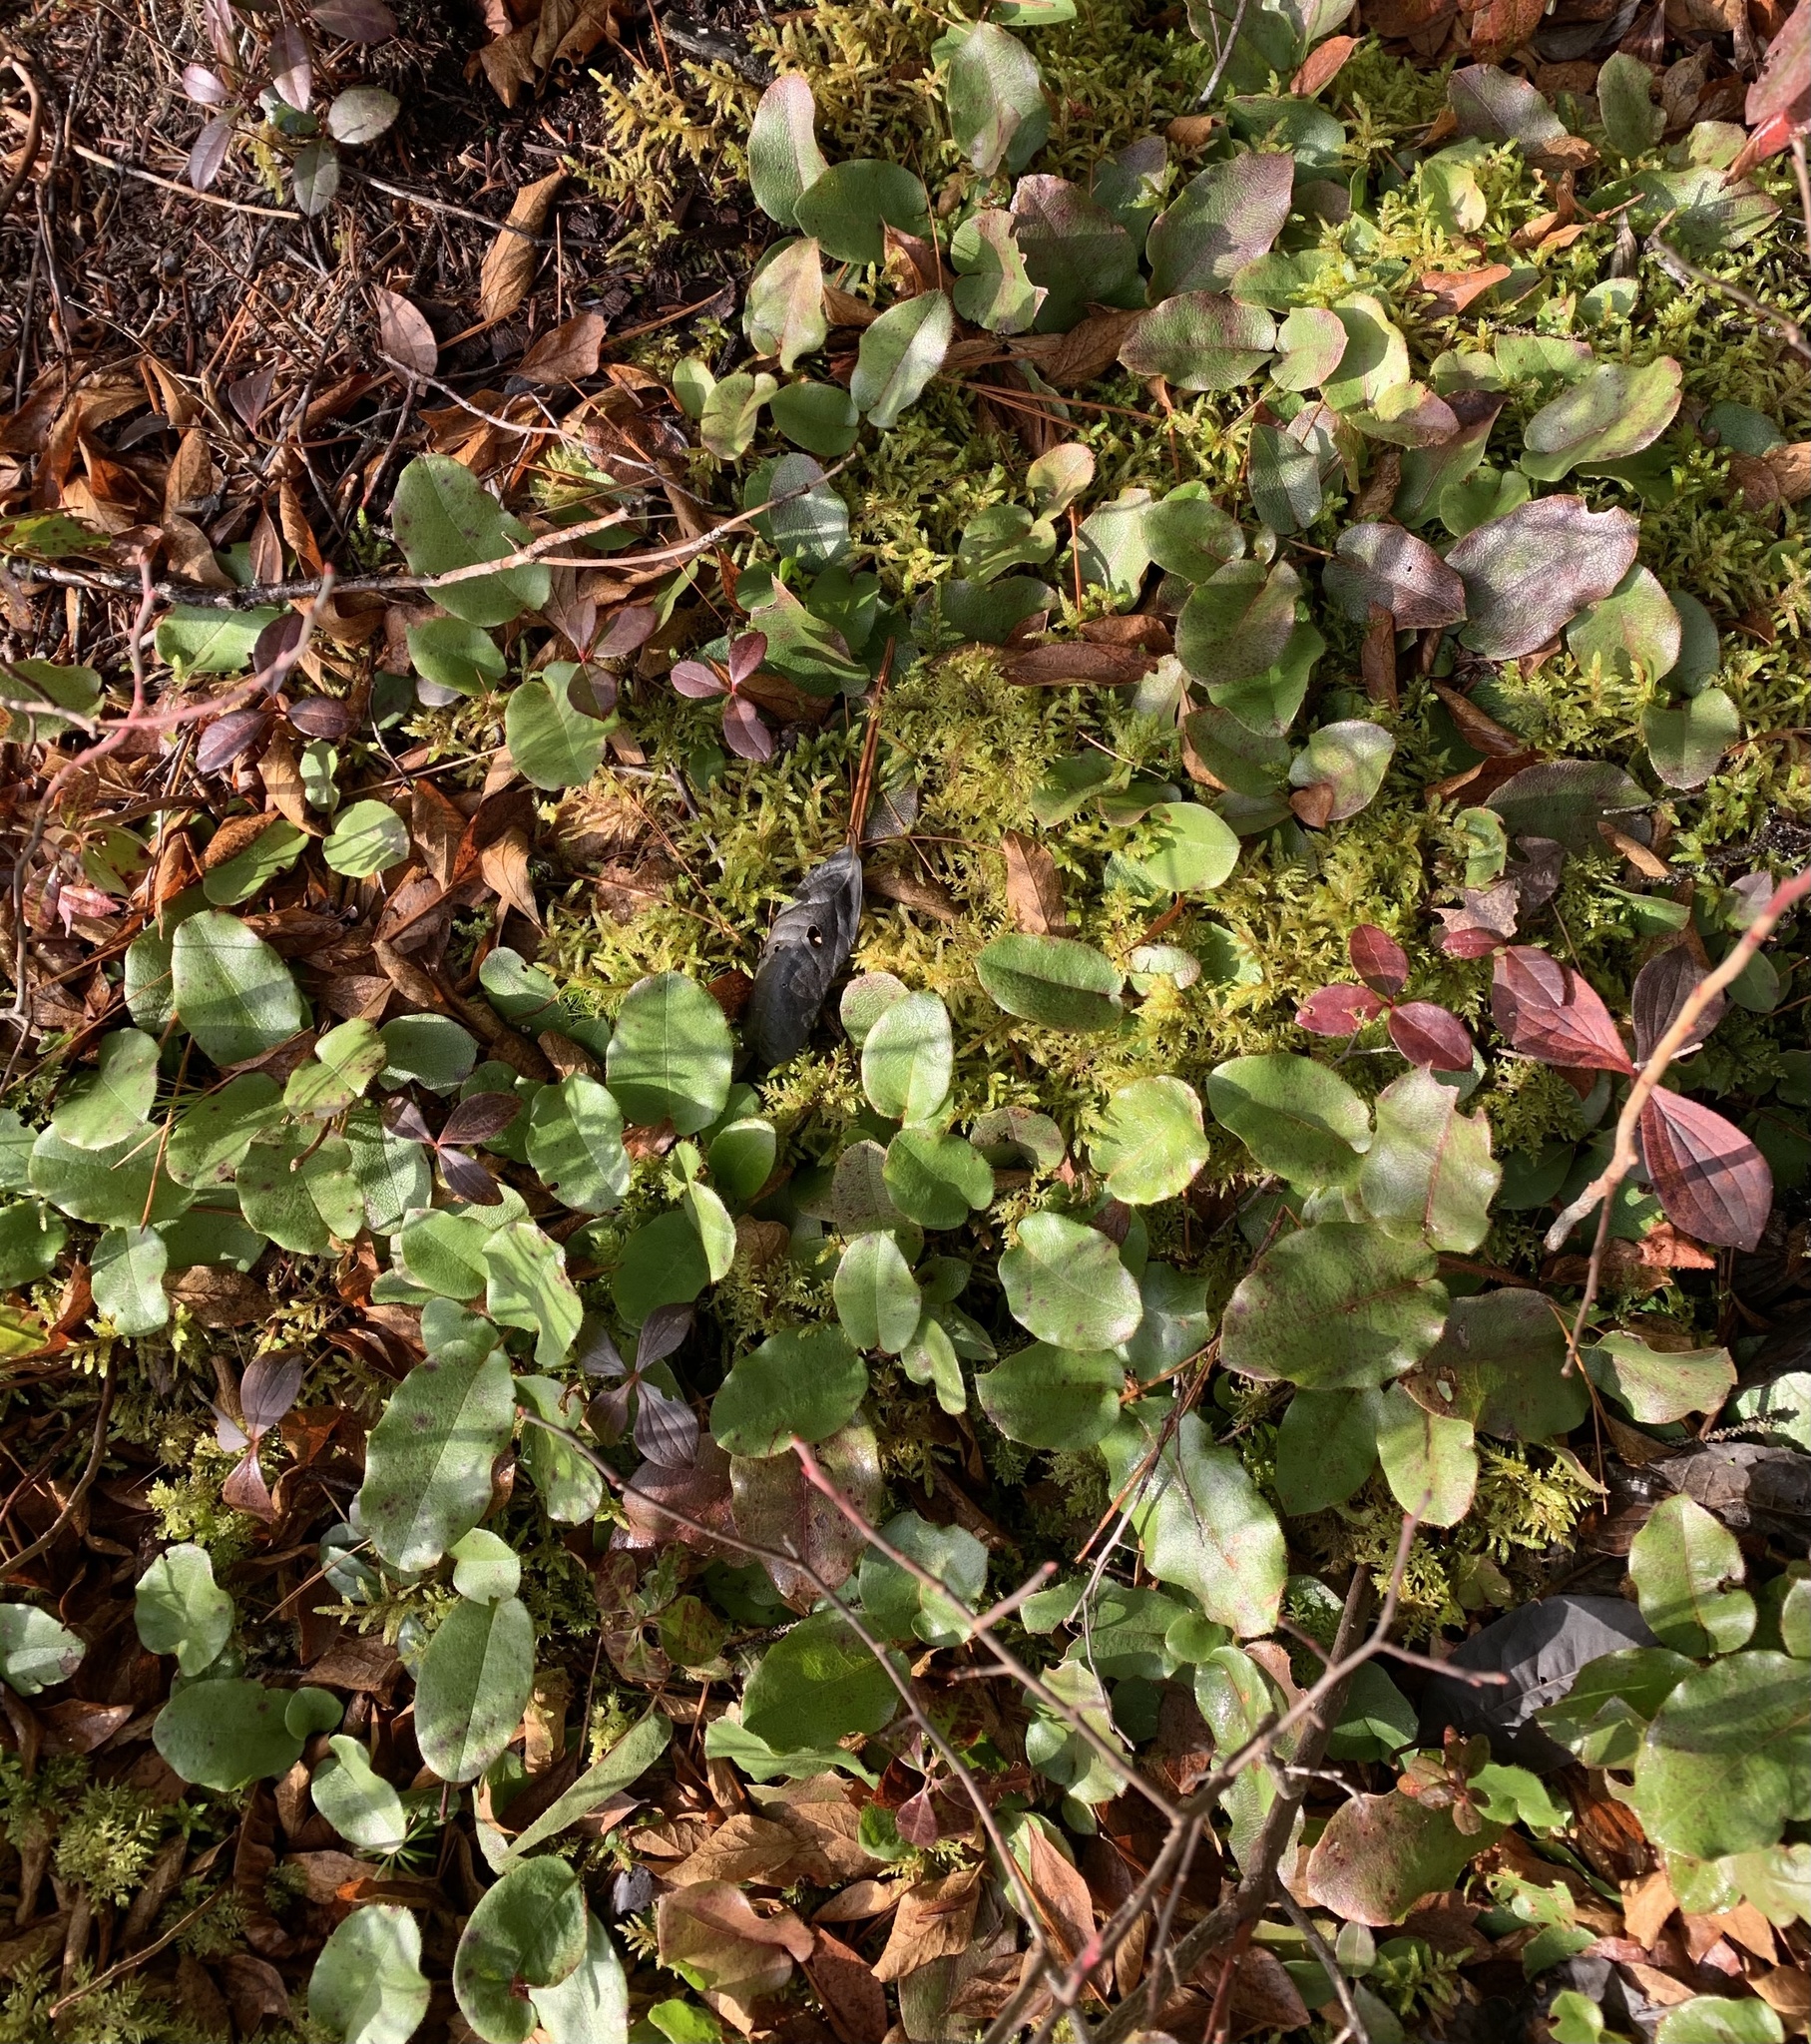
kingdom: Plantae
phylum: Tracheophyta
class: Magnoliopsida
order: Ericales
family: Ericaceae
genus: Epigaea
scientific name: Epigaea repens
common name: Gravelroot
